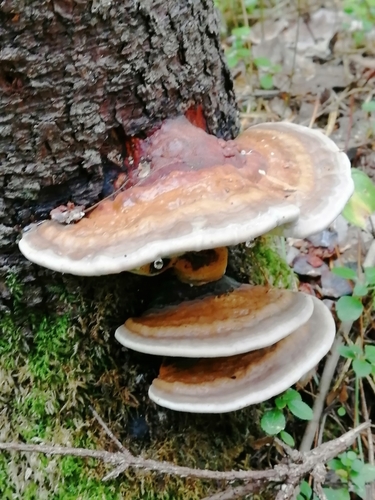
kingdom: Fungi
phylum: Basidiomycota
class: Agaricomycetes
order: Polyporales
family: Fomitopsidaceae
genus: Fomitopsis
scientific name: Fomitopsis pinicola
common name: Red-belted bracket
